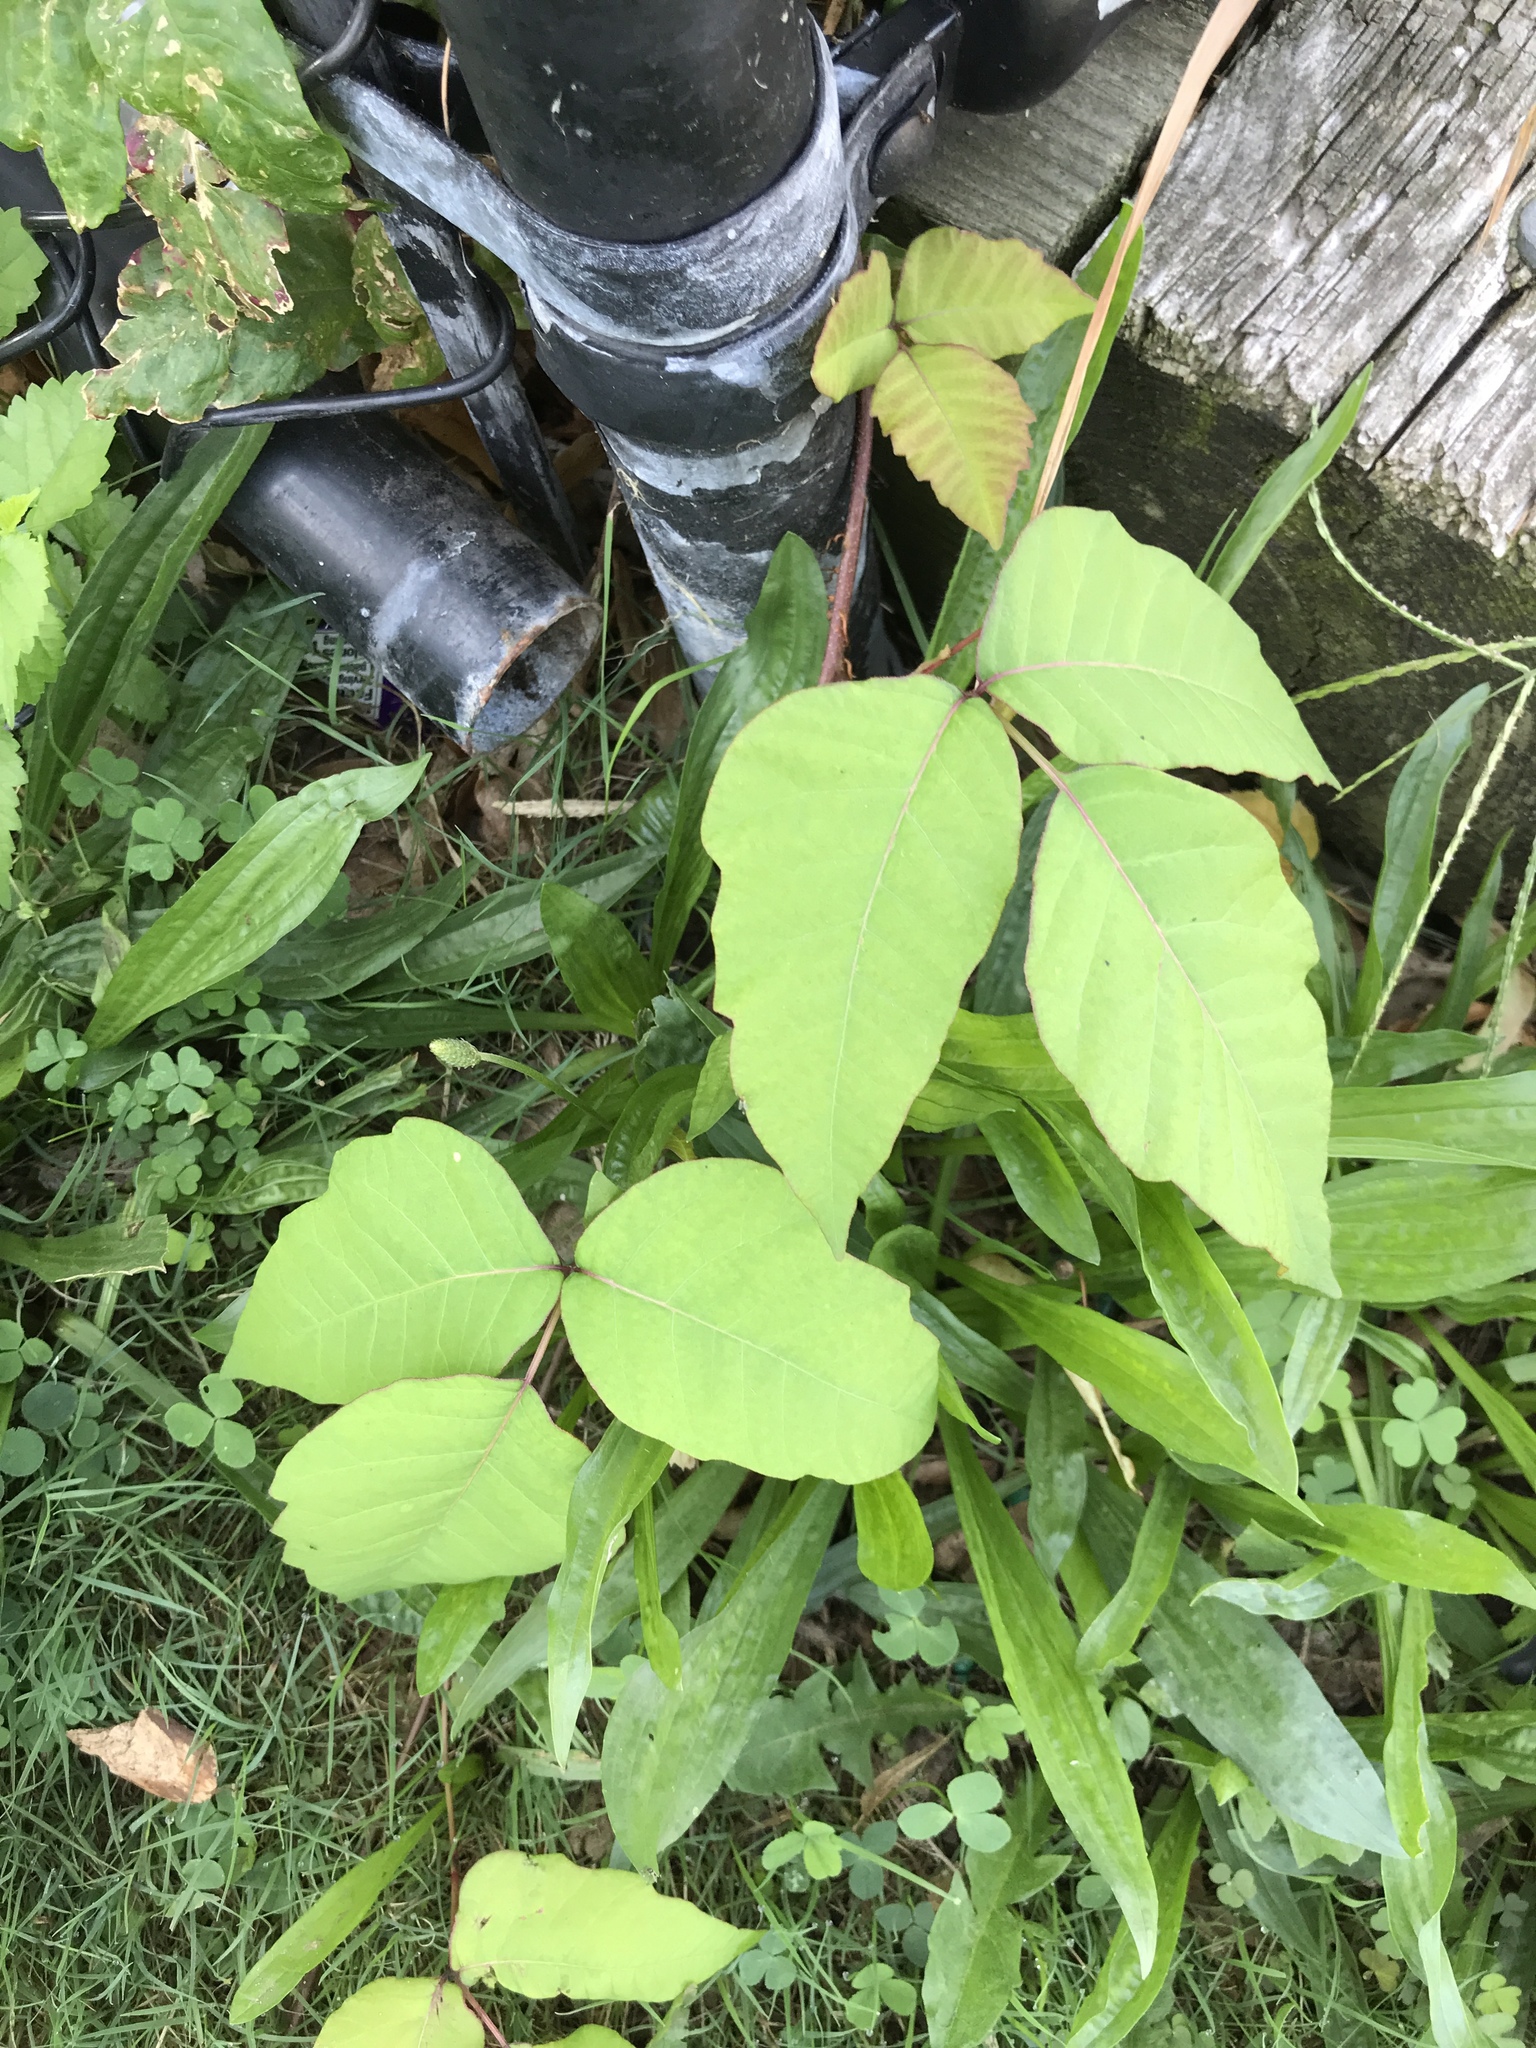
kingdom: Plantae
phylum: Tracheophyta
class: Magnoliopsida
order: Sapindales
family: Anacardiaceae
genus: Toxicodendron
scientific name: Toxicodendron radicans
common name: Poison ivy
